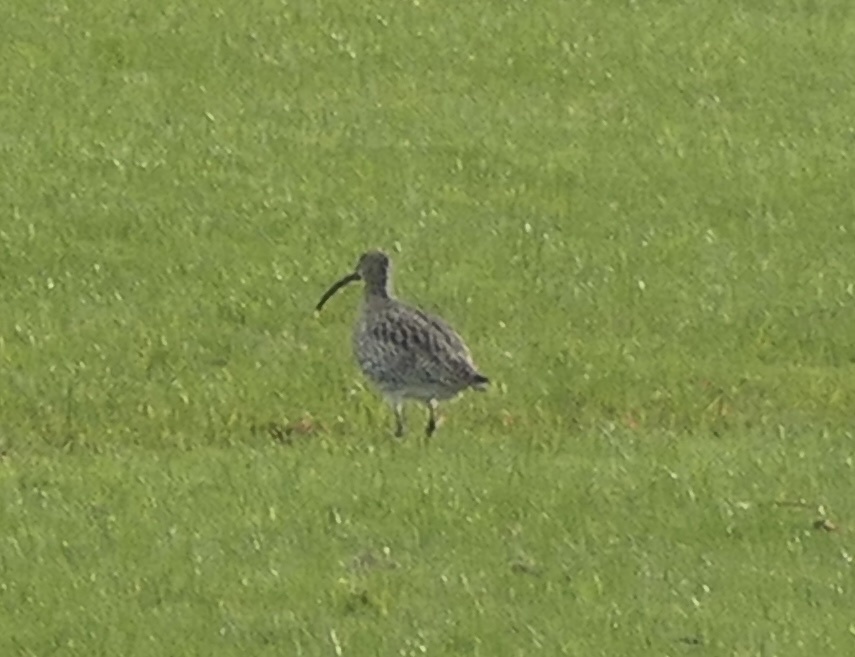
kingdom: Animalia
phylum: Chordata
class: Aves
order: Charadriiformes
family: Scolopacidae
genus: Numenius
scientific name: Numenius arquata
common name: Eurasian curlew
